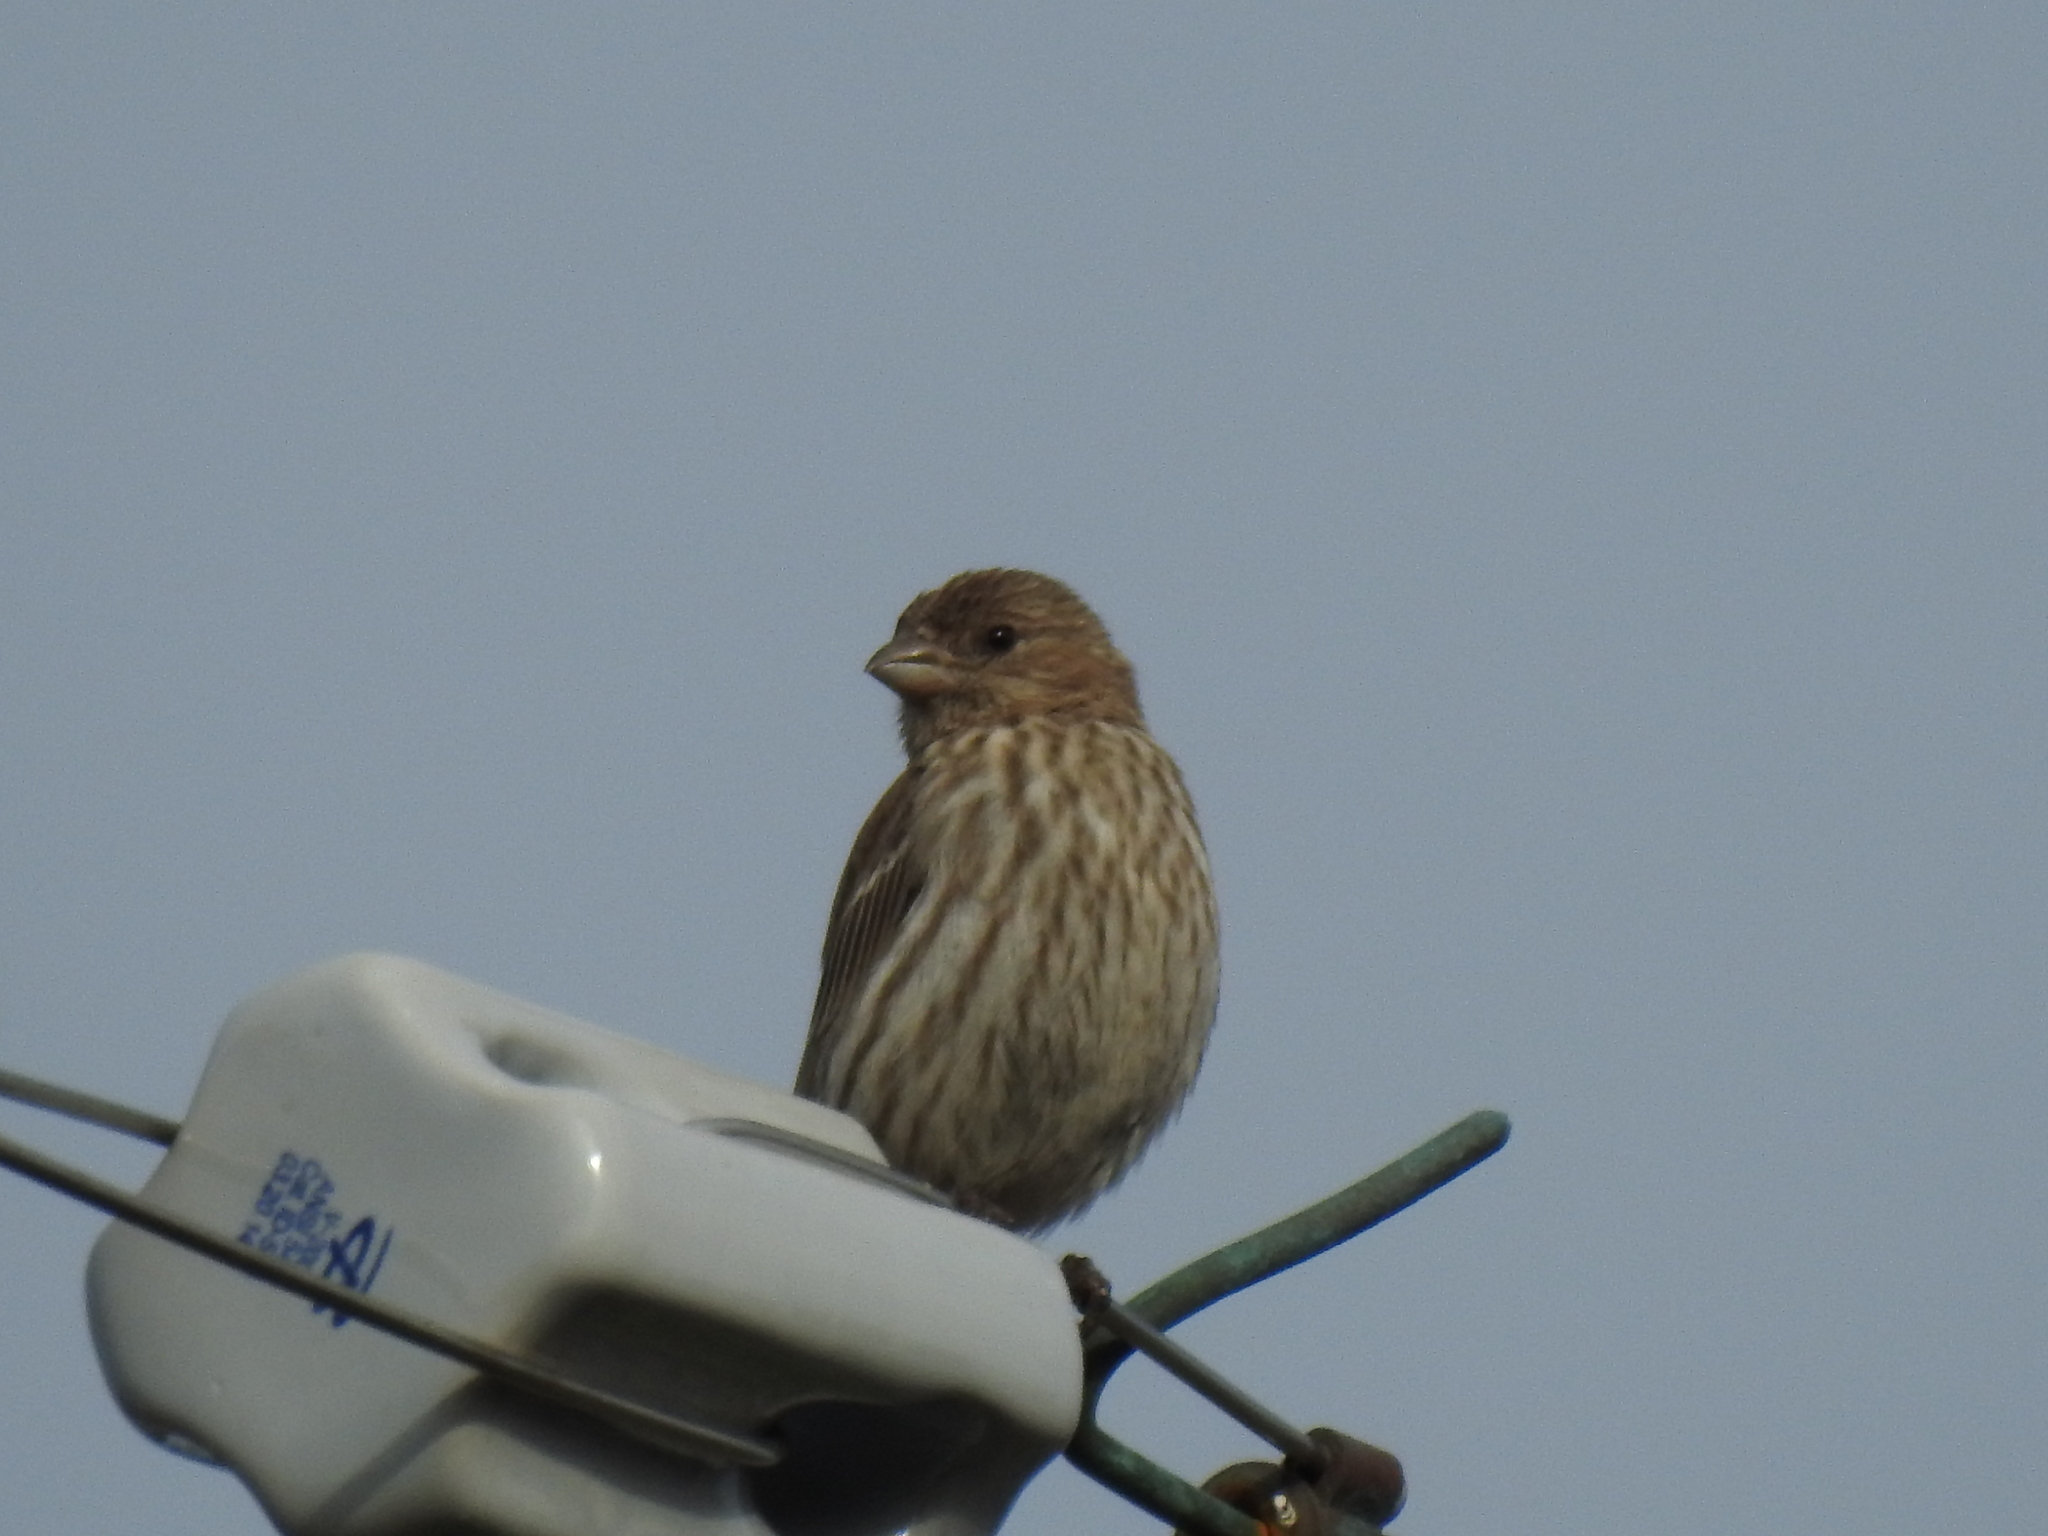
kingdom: Animalia
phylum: Chordata
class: Aves
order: Passeriformes
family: Fringillidae
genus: Haemorhous
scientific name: Haemorhous mexicanus
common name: House finch
